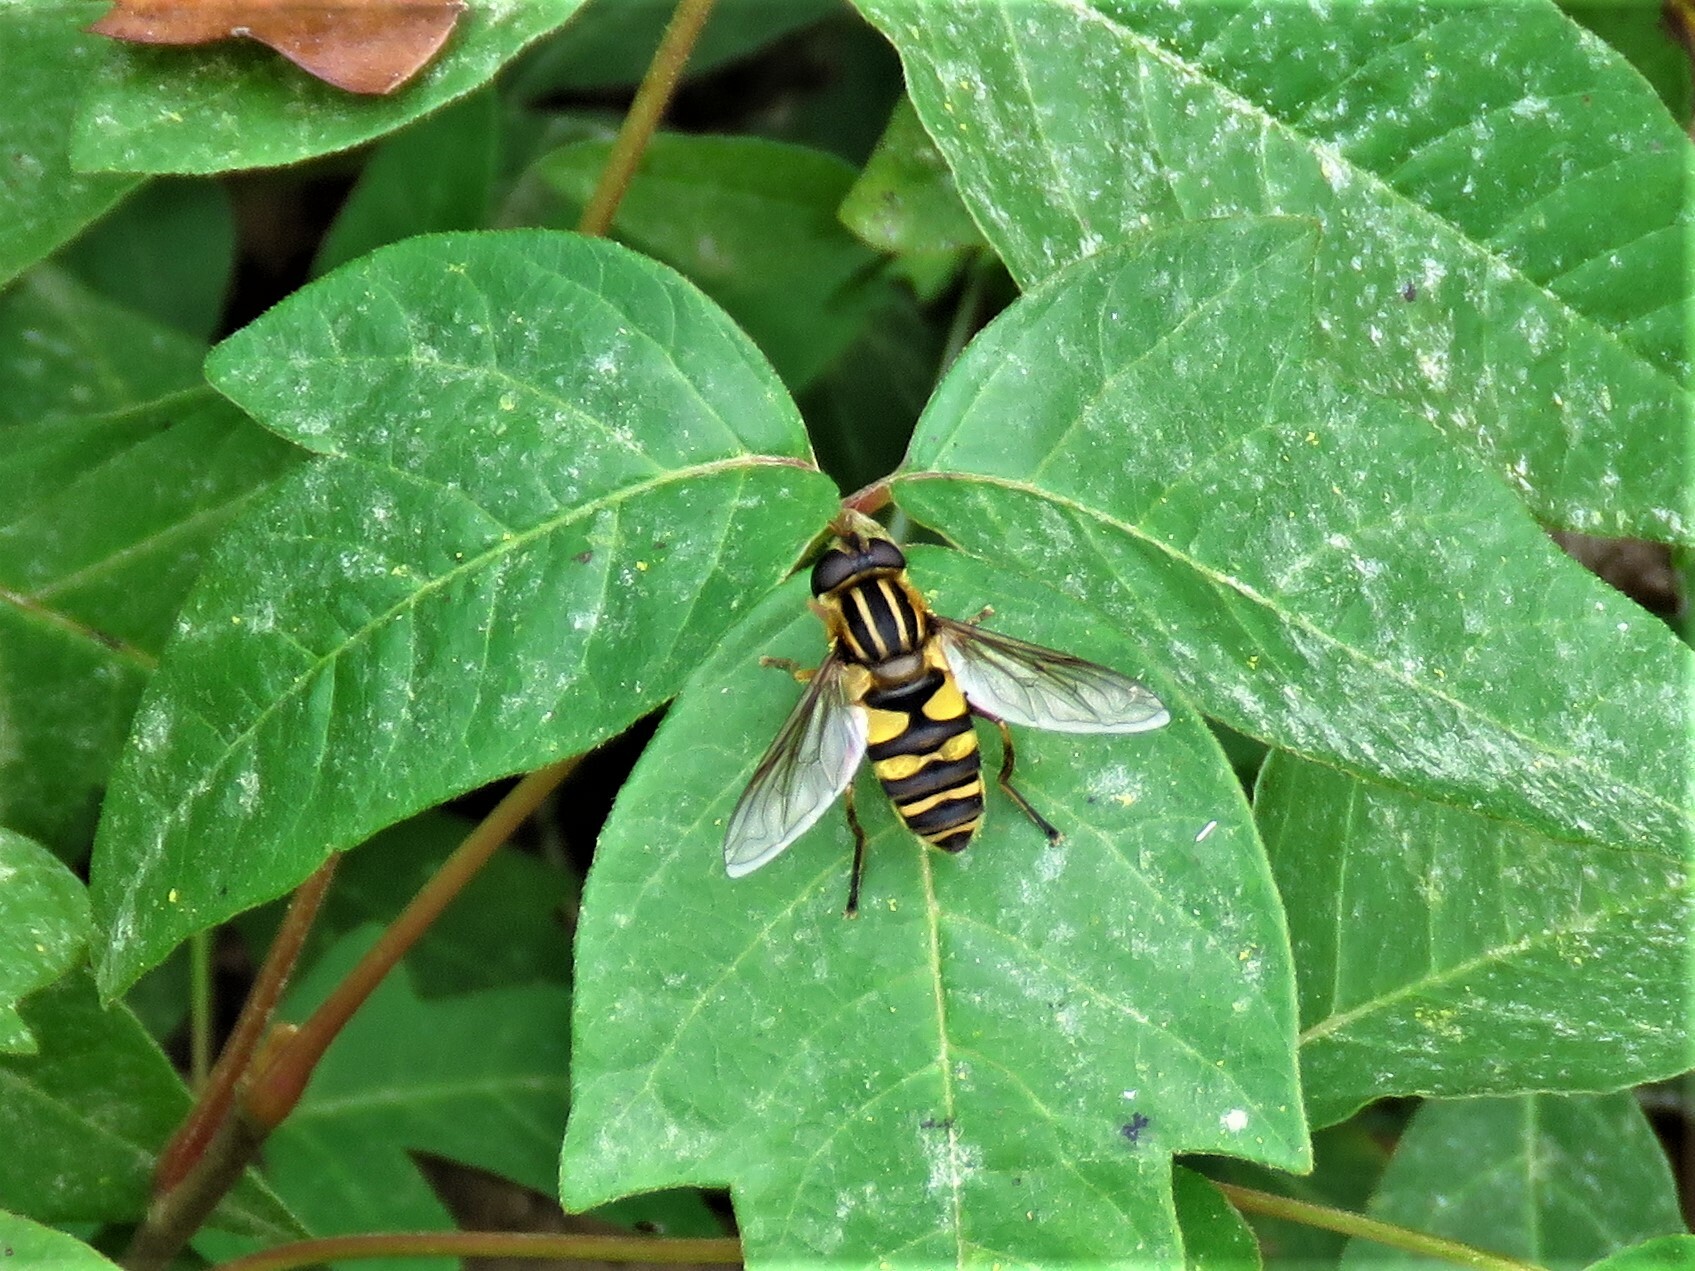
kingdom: Animalia
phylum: Arthropoda
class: Insecta
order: Diptera
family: Syrphidae
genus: Helophilus
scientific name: Helophilus fasciatus
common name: Narrow-headed marsh fly
